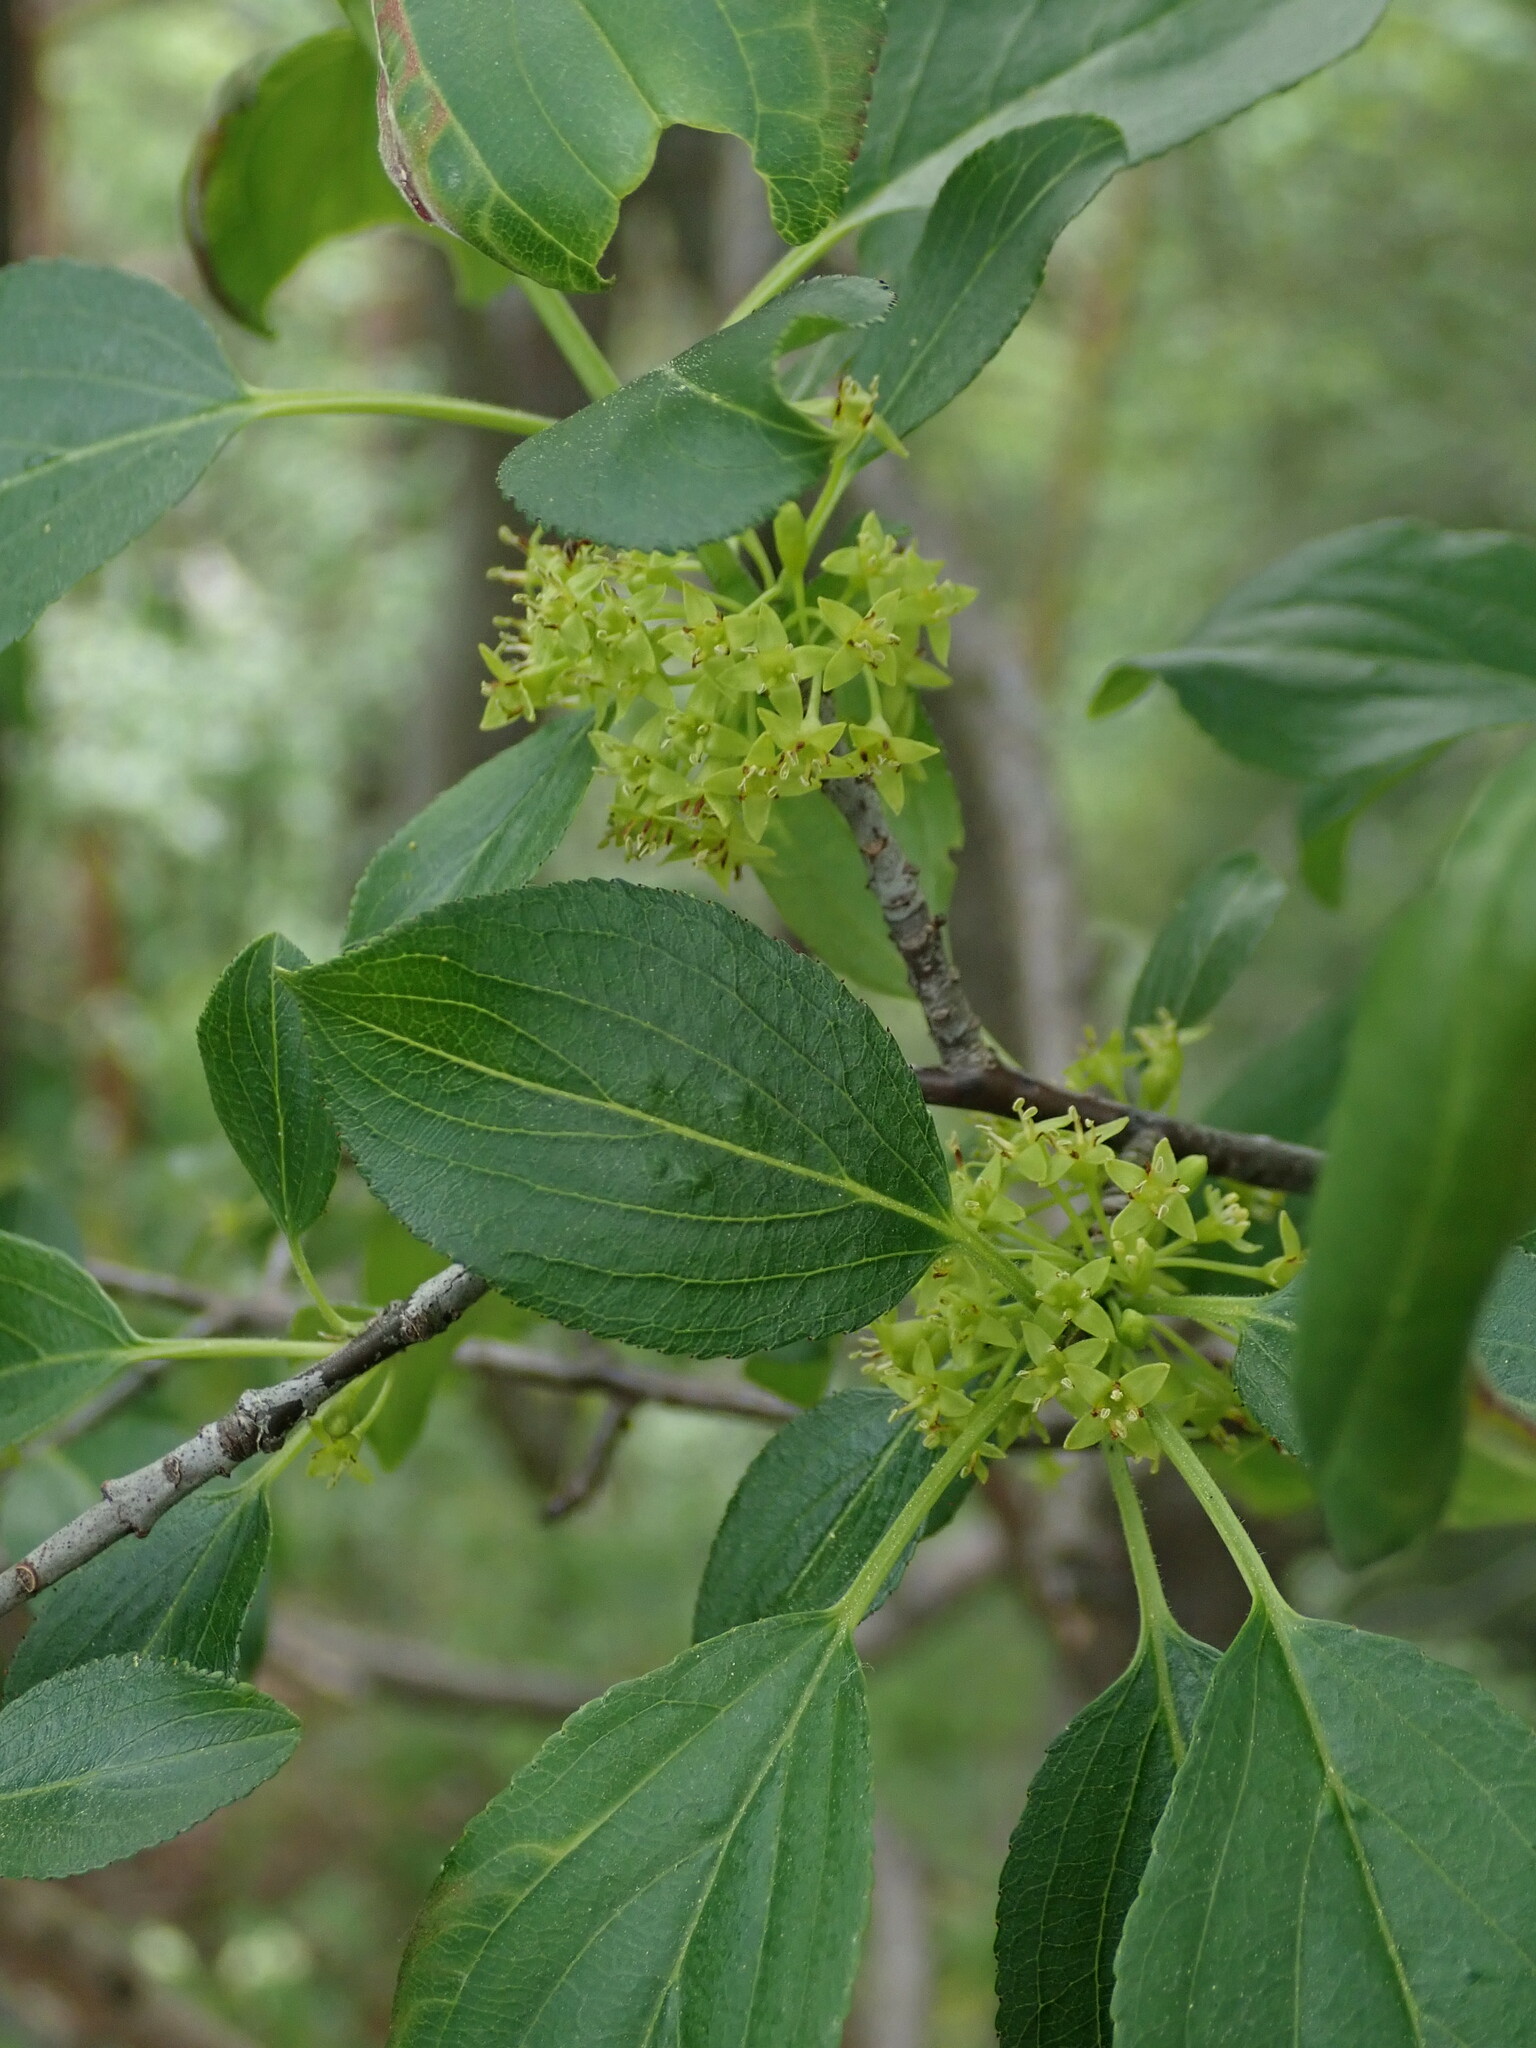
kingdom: Plantae
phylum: Tracheophyta
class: Magnoliopsida
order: Rosales
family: Rhamnaceae
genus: Rhamnus
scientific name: Rhamnus cathartica
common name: Common buckthorn
